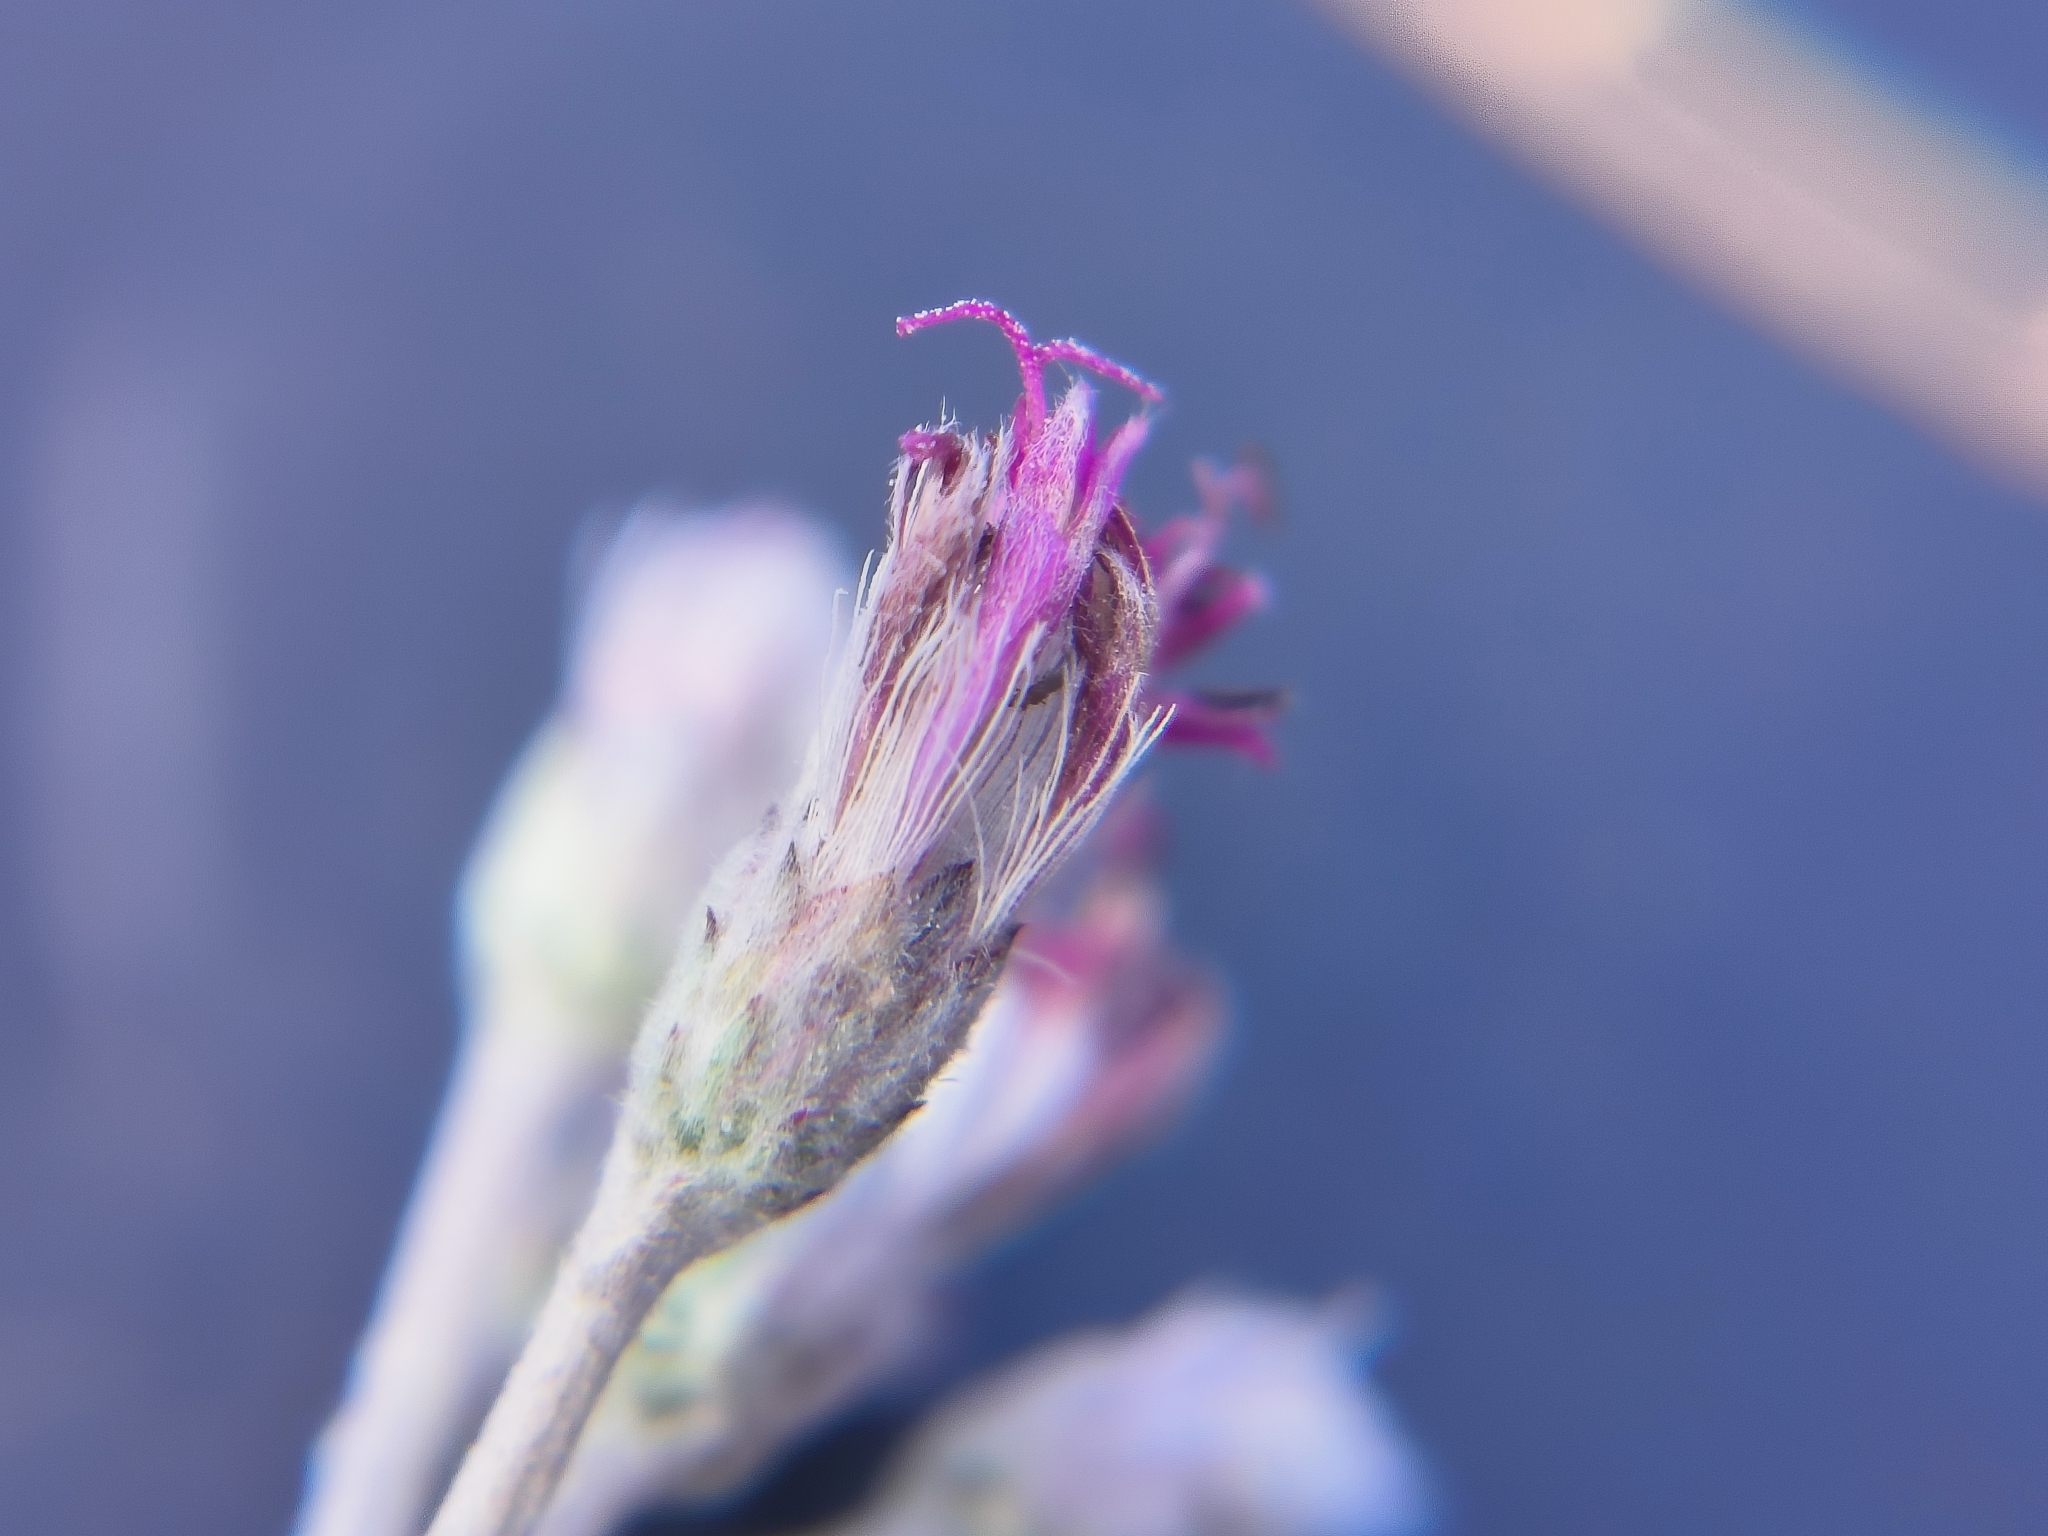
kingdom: Plantae
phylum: Tracheophyta
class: Magnoliopsida
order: Asterales
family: Asteraceae
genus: Hilliardiella
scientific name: Hilliardiella oligocephala
